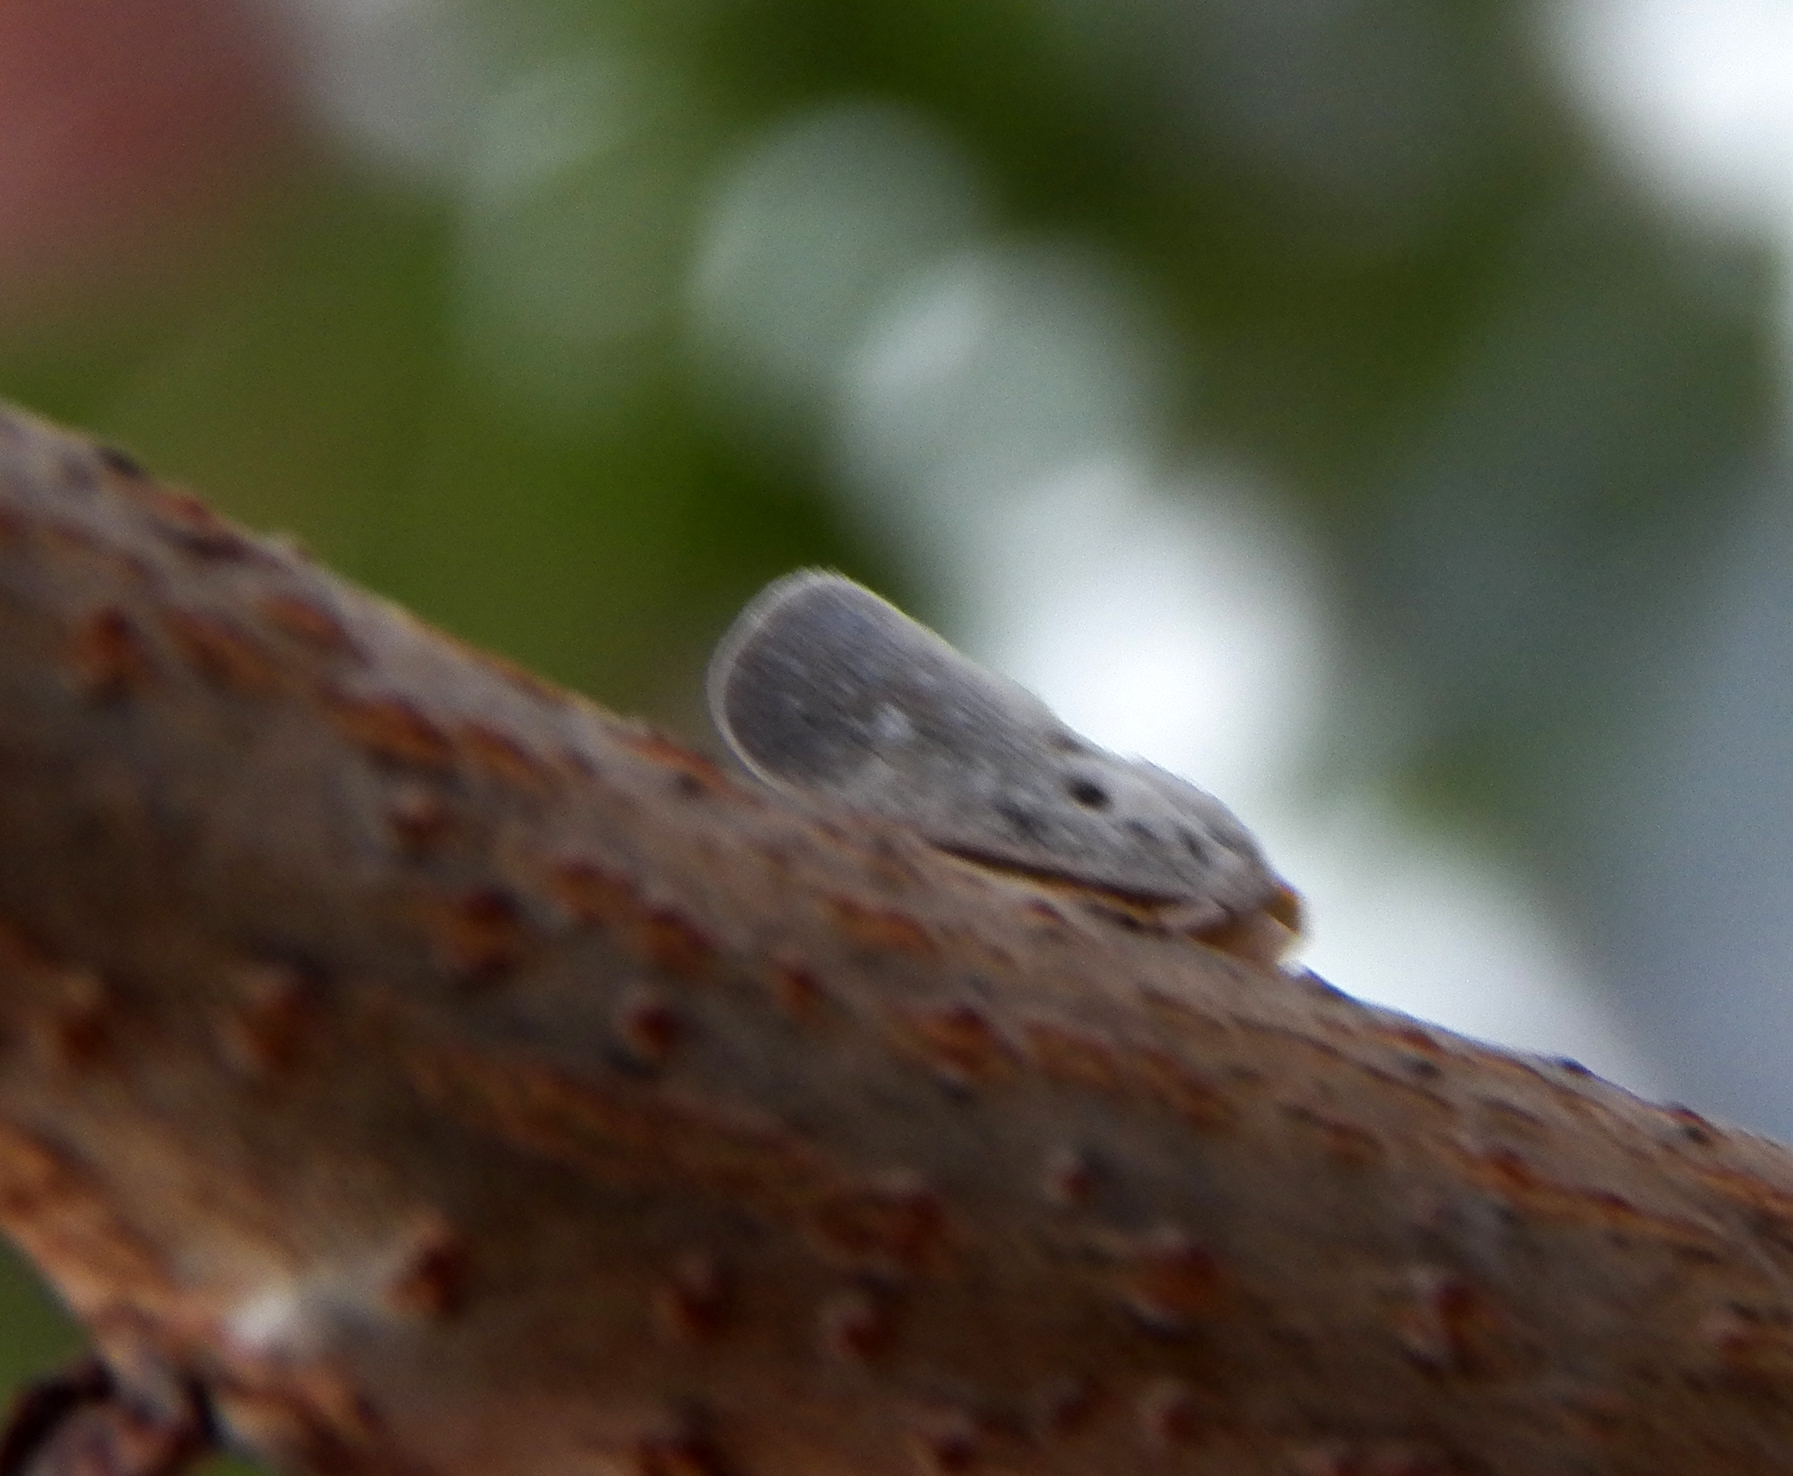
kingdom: Animalia
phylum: Arthropoda
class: Insecta
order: Hemiptera
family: Flatidae
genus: Metcalfa
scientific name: Metcalfa pruinosa
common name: Citrus flatid planthopper
